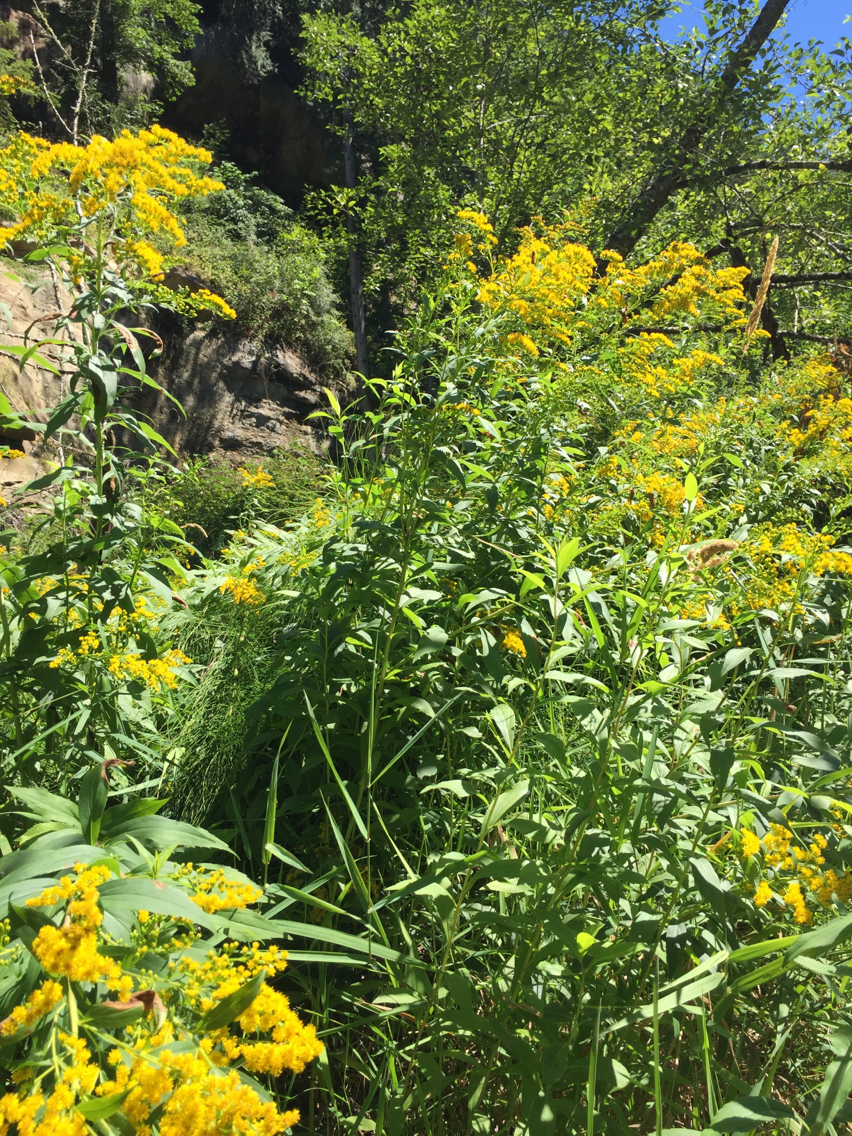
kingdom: Plantae
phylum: Tracheophyta
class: Magnoliopsida
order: Asterales
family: Asteraceae
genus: Solidago
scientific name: Solidago canadensis
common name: Canada goldenrod
